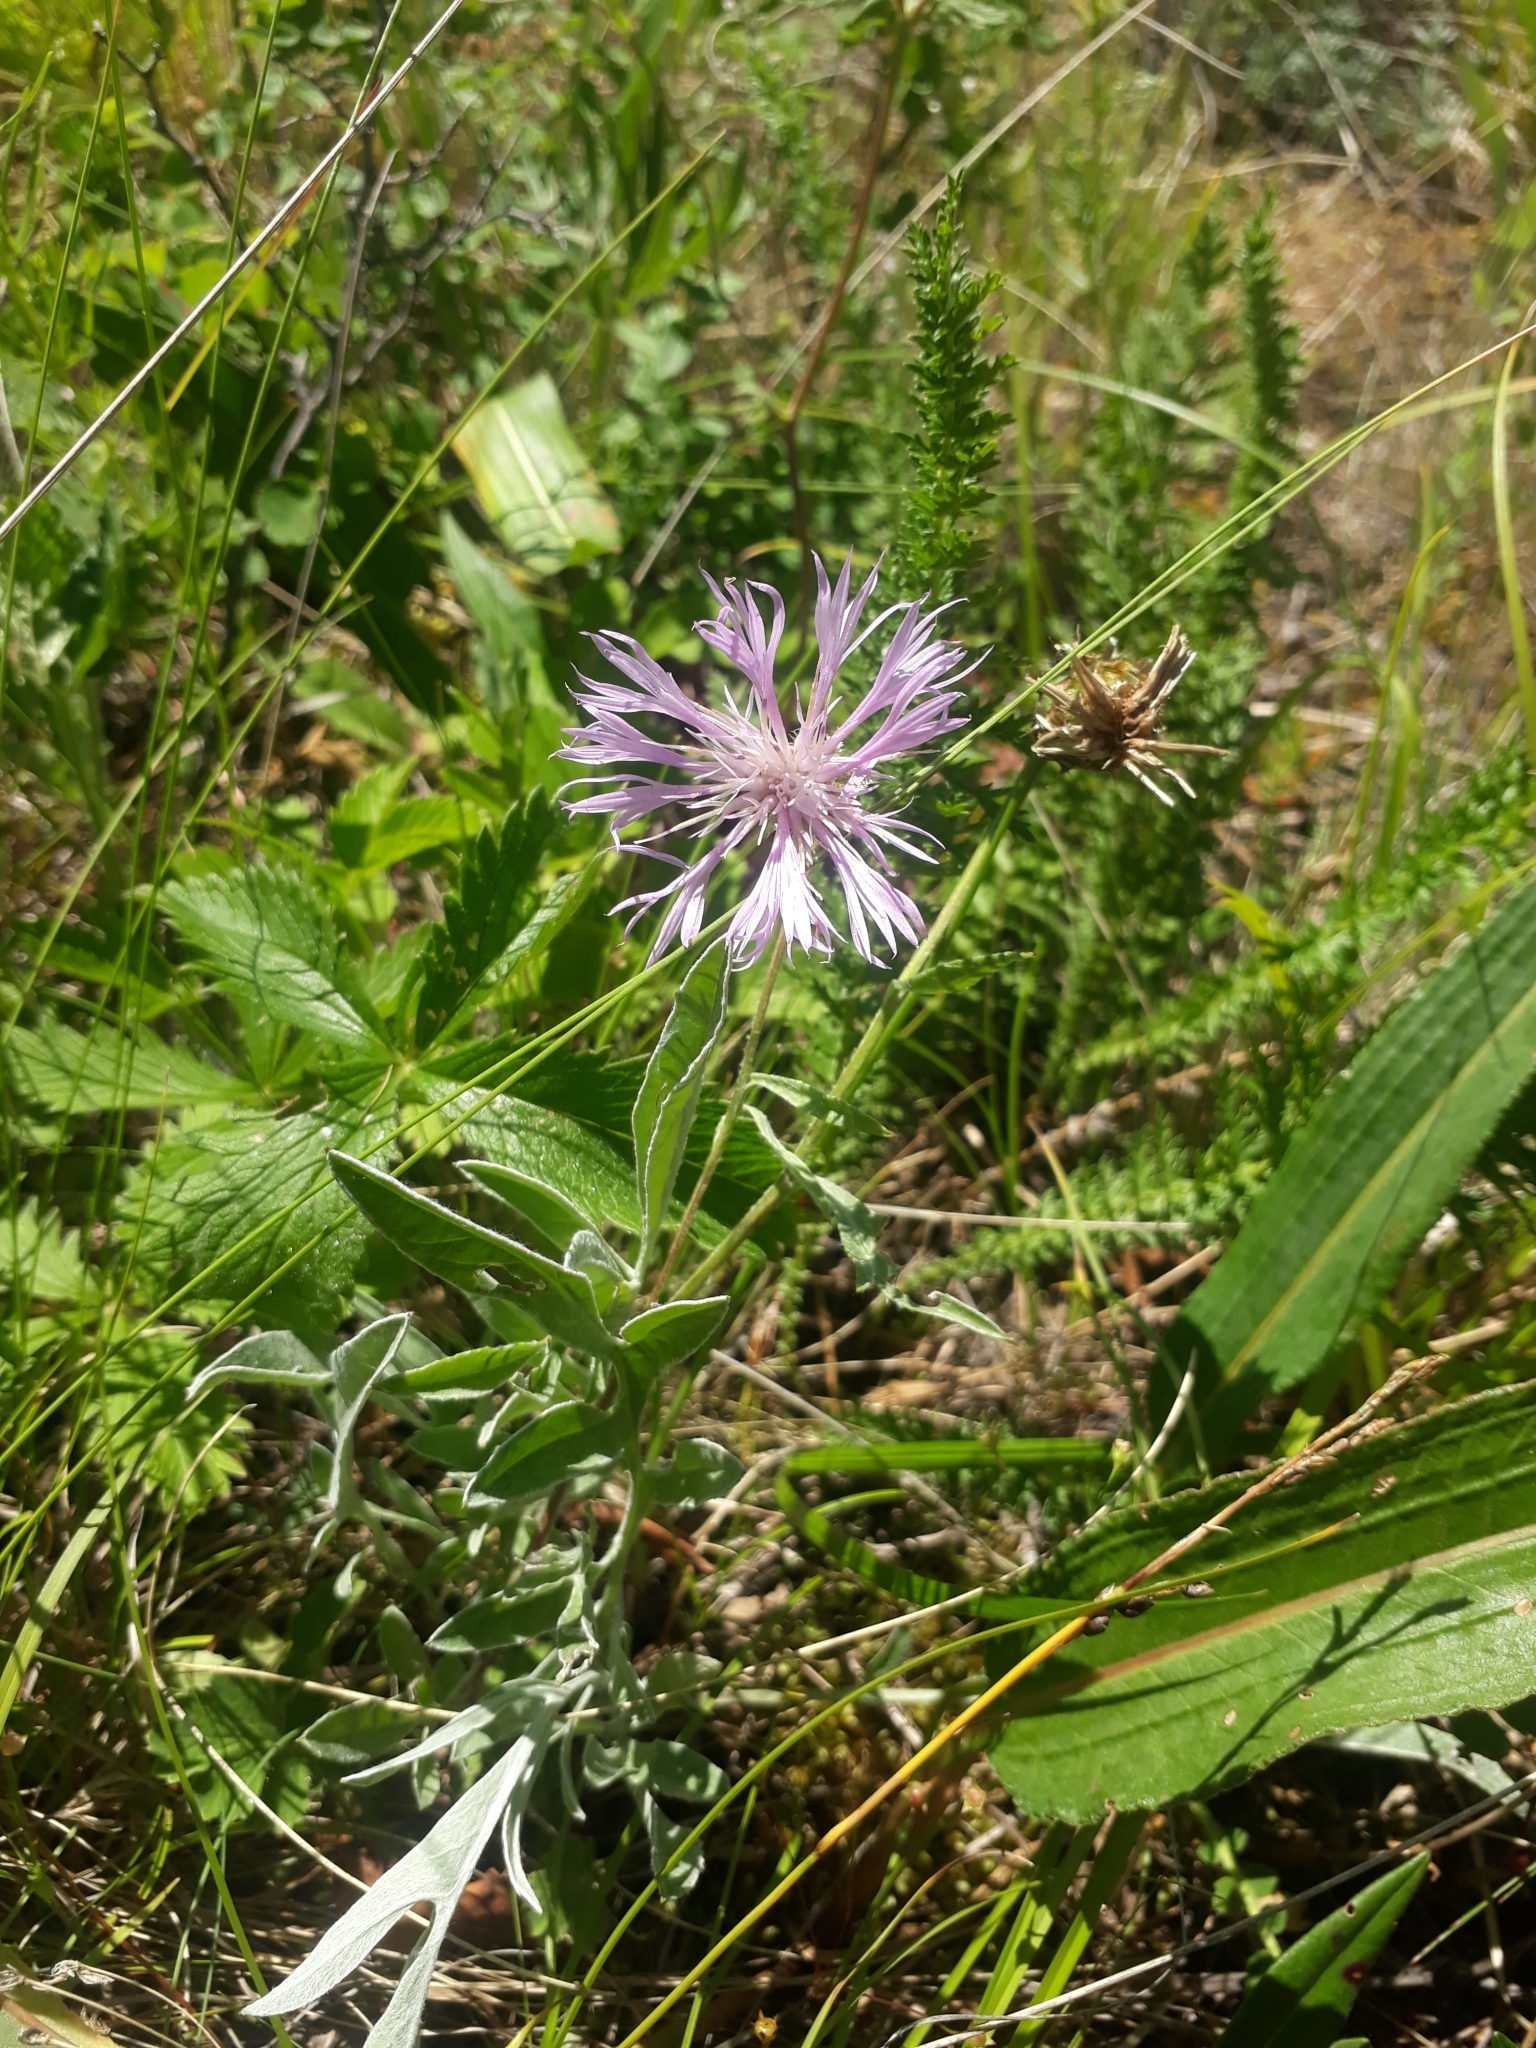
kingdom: Plantae
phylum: Tracheophyta
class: Magnoliopsida
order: Asterales
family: Asteraceae
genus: Psephellus
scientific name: Psephellus sibiricus
